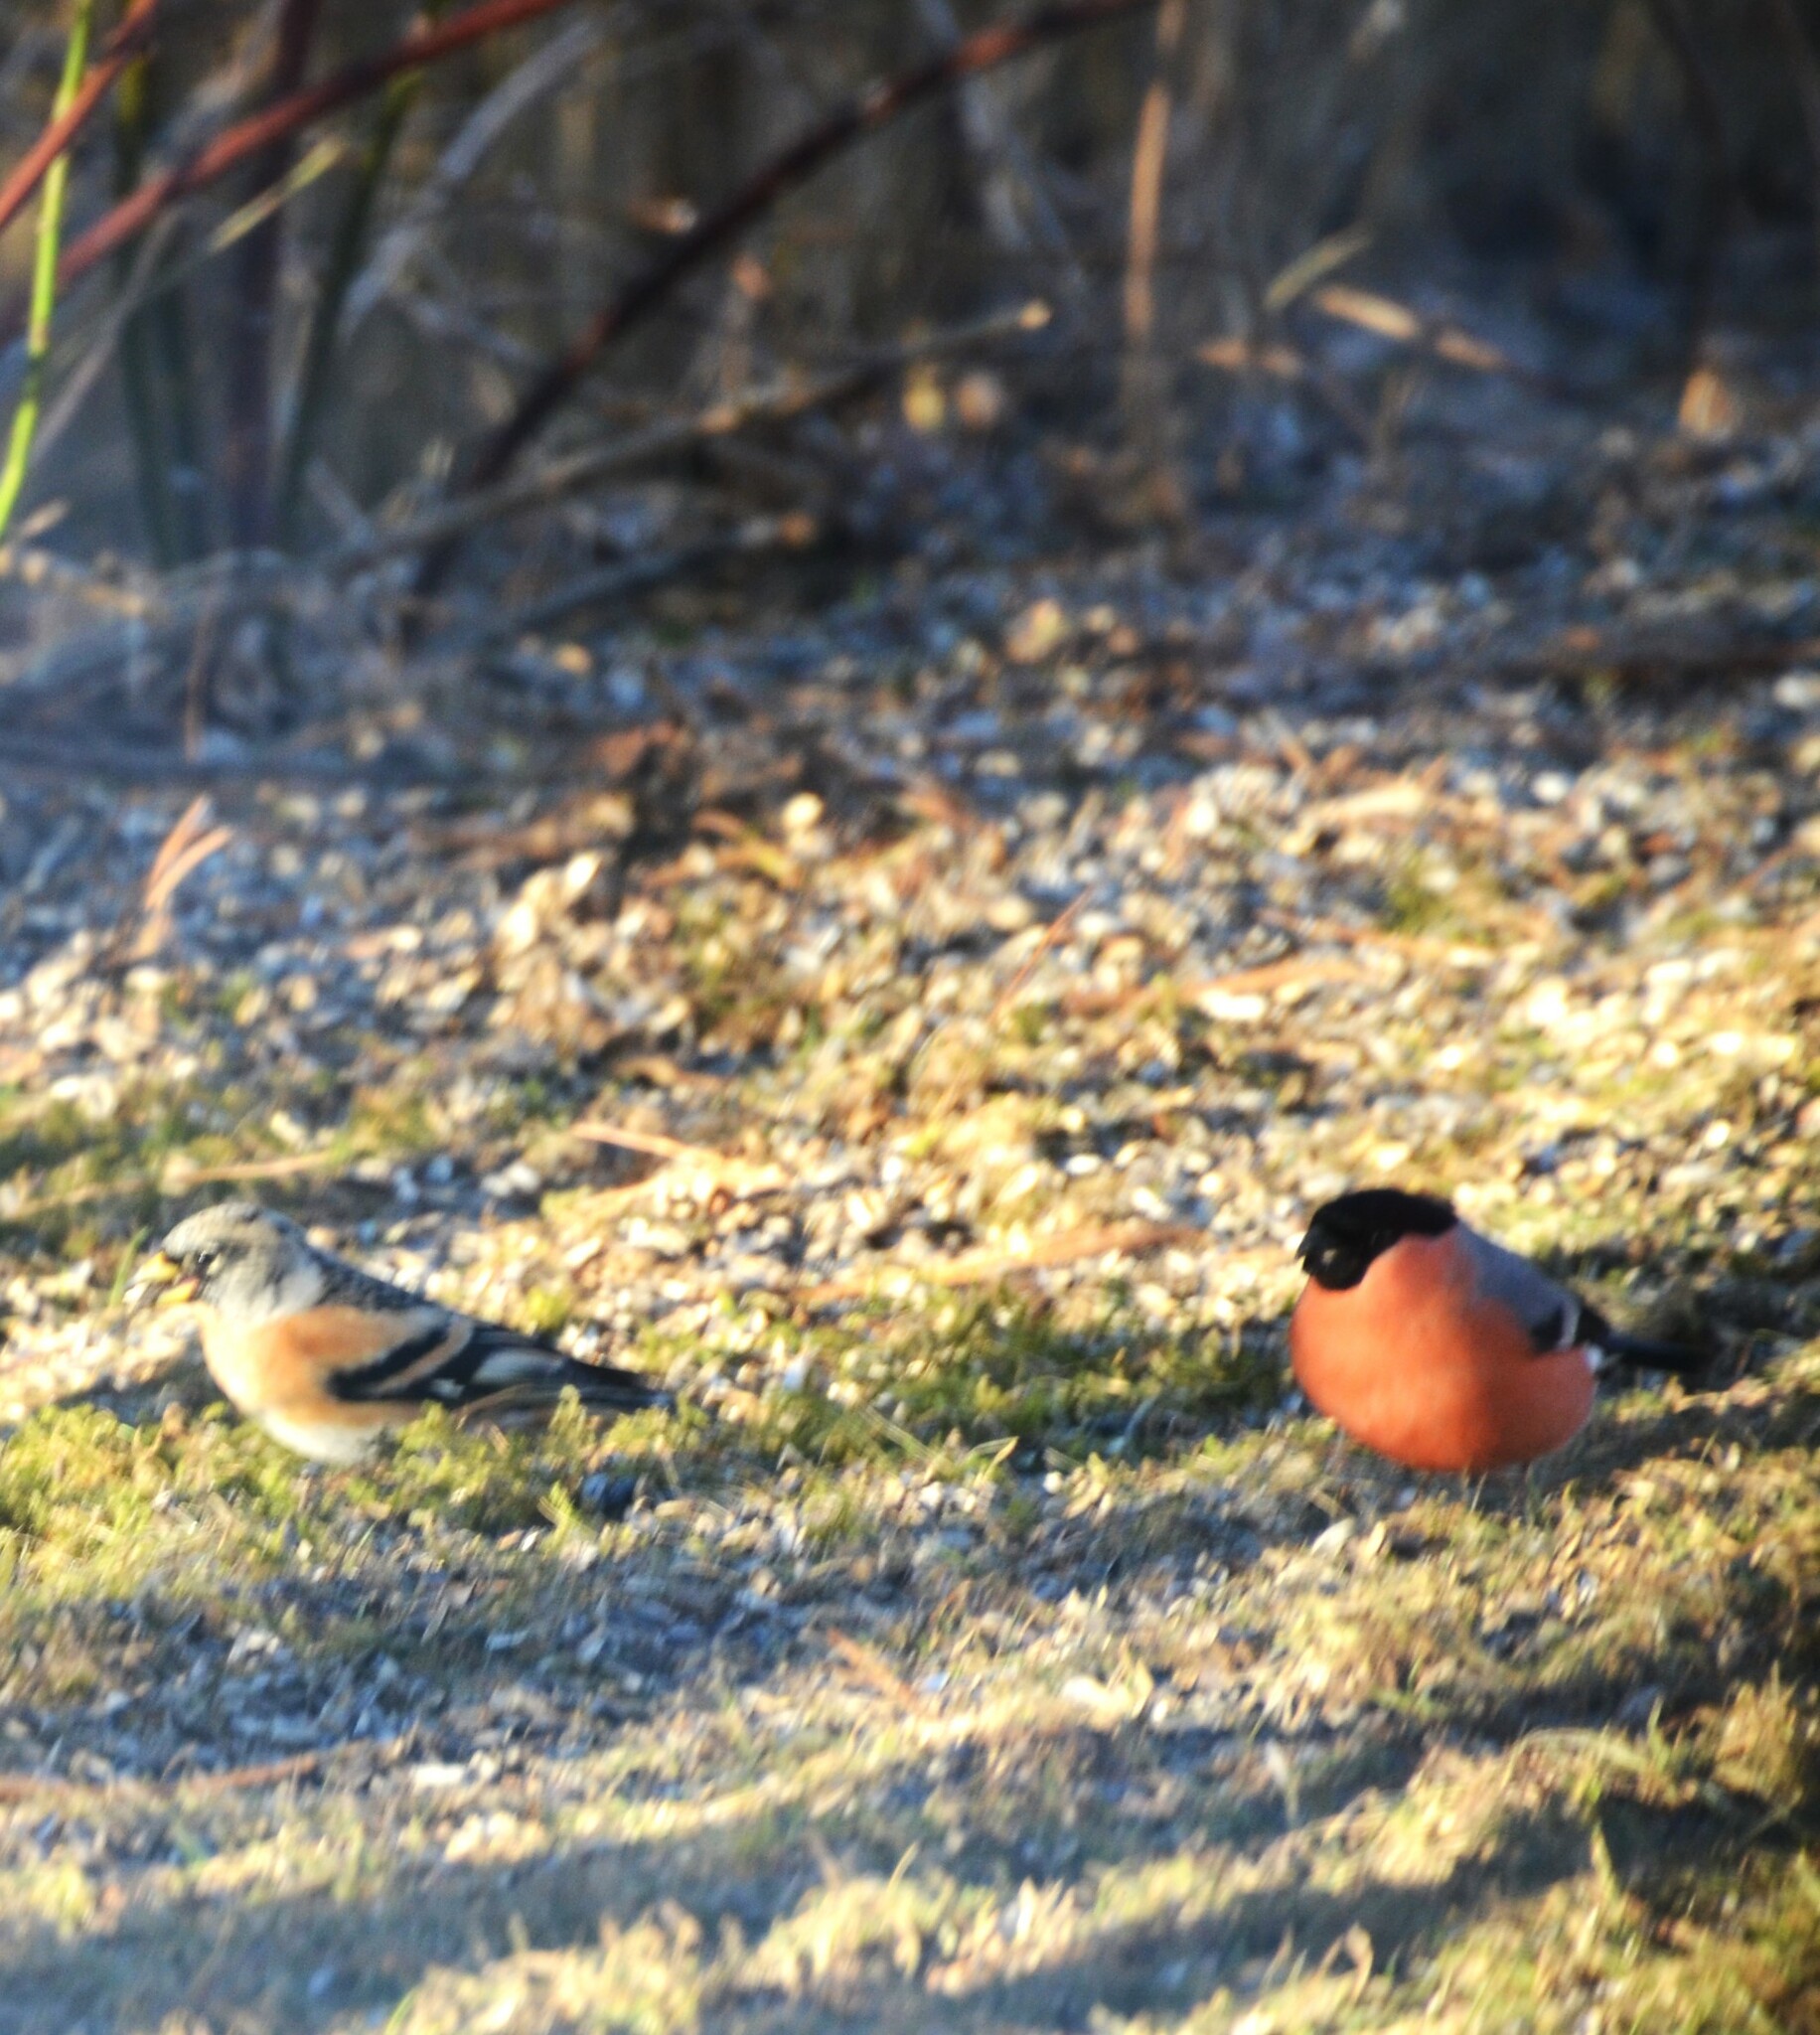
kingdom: Animalia
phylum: Chordata
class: Aves
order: Passeriformes
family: Fringillidae
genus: Pyrrhula
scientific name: Pyrrhula pyrrhula
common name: Eurasian bullfinch
